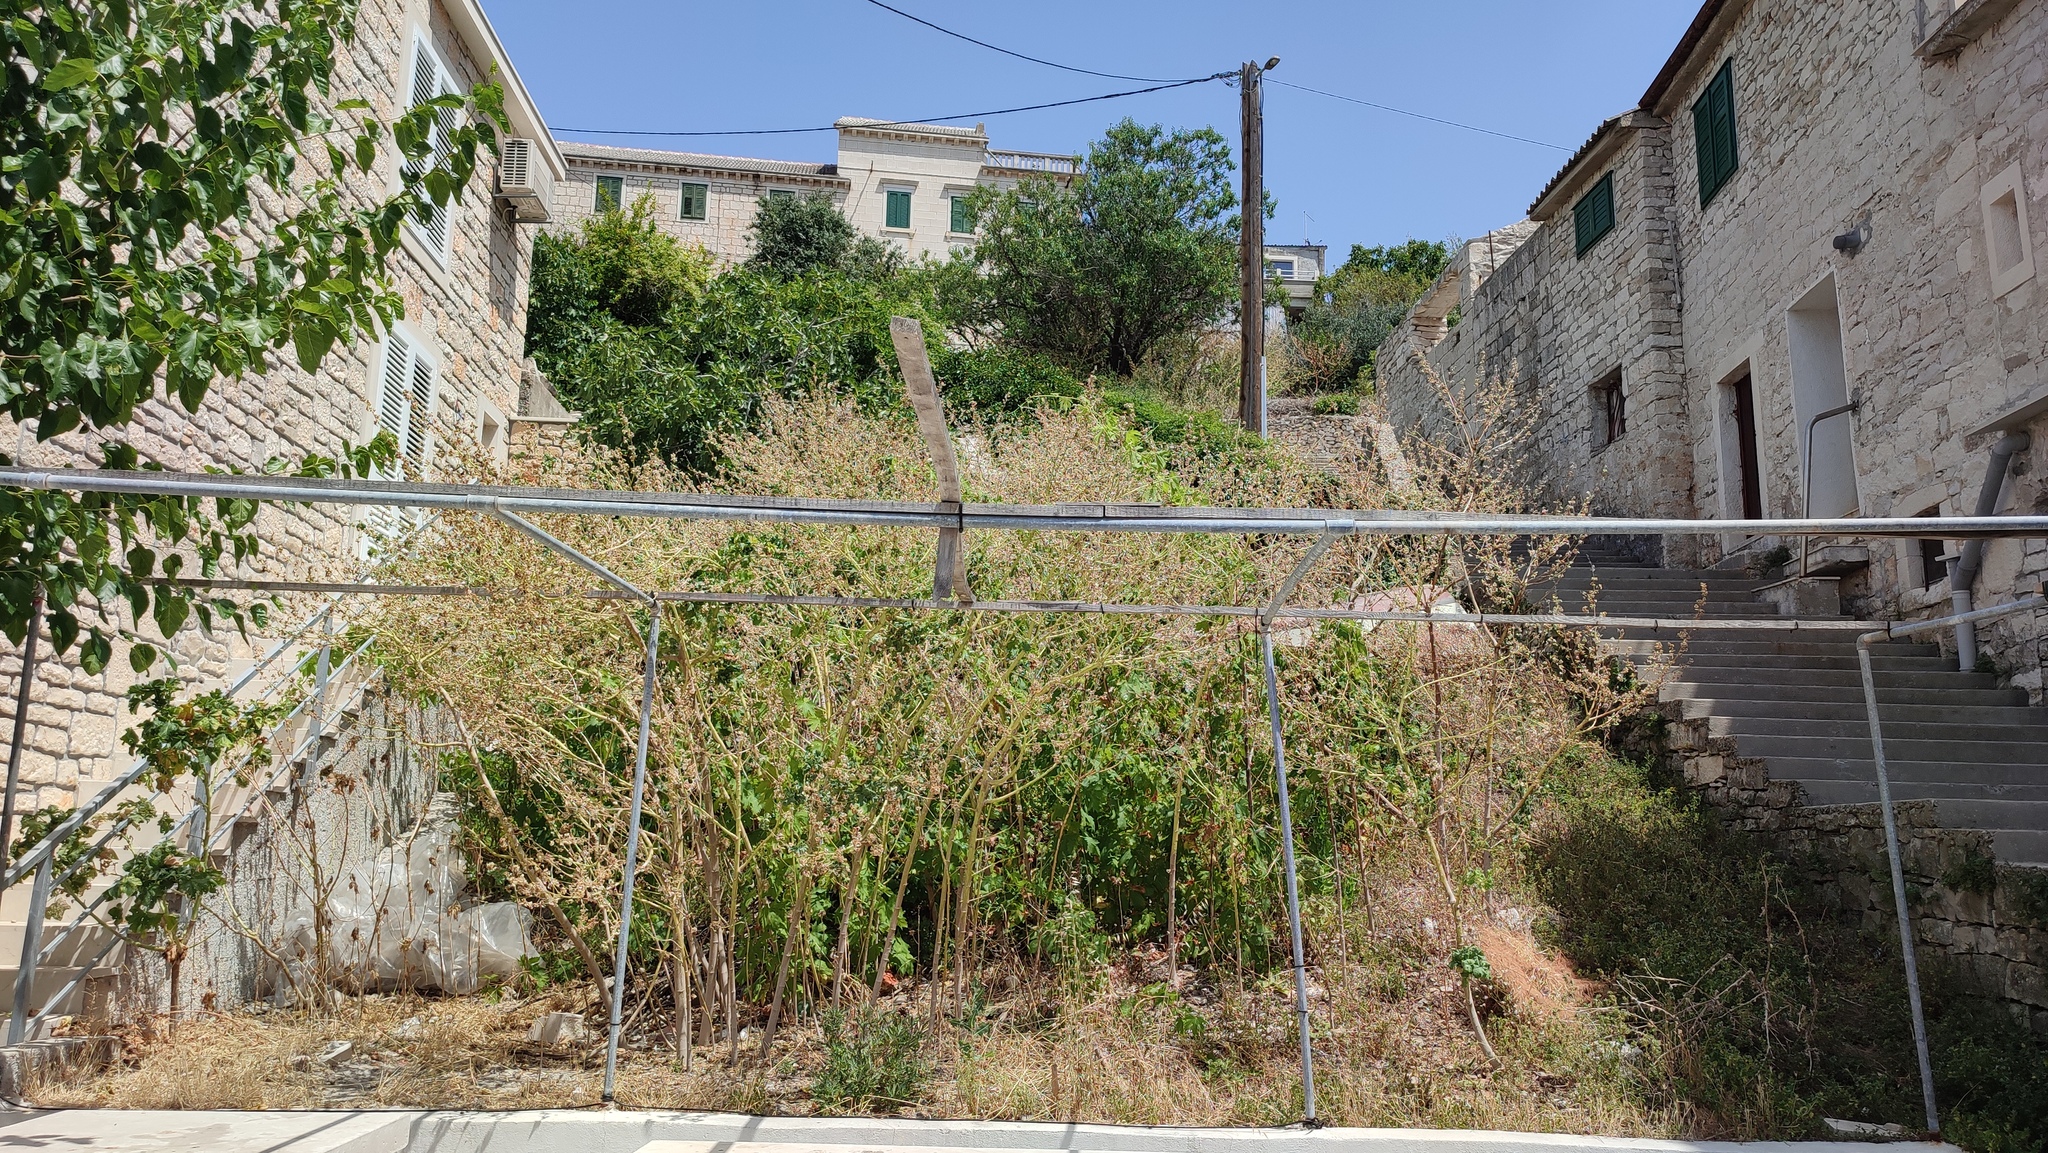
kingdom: Plantae
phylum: Tracheophyta
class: Magnoliopsida
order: Malvales
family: Malvaceae
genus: Malva
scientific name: Malva arborea
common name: Tree mallow
